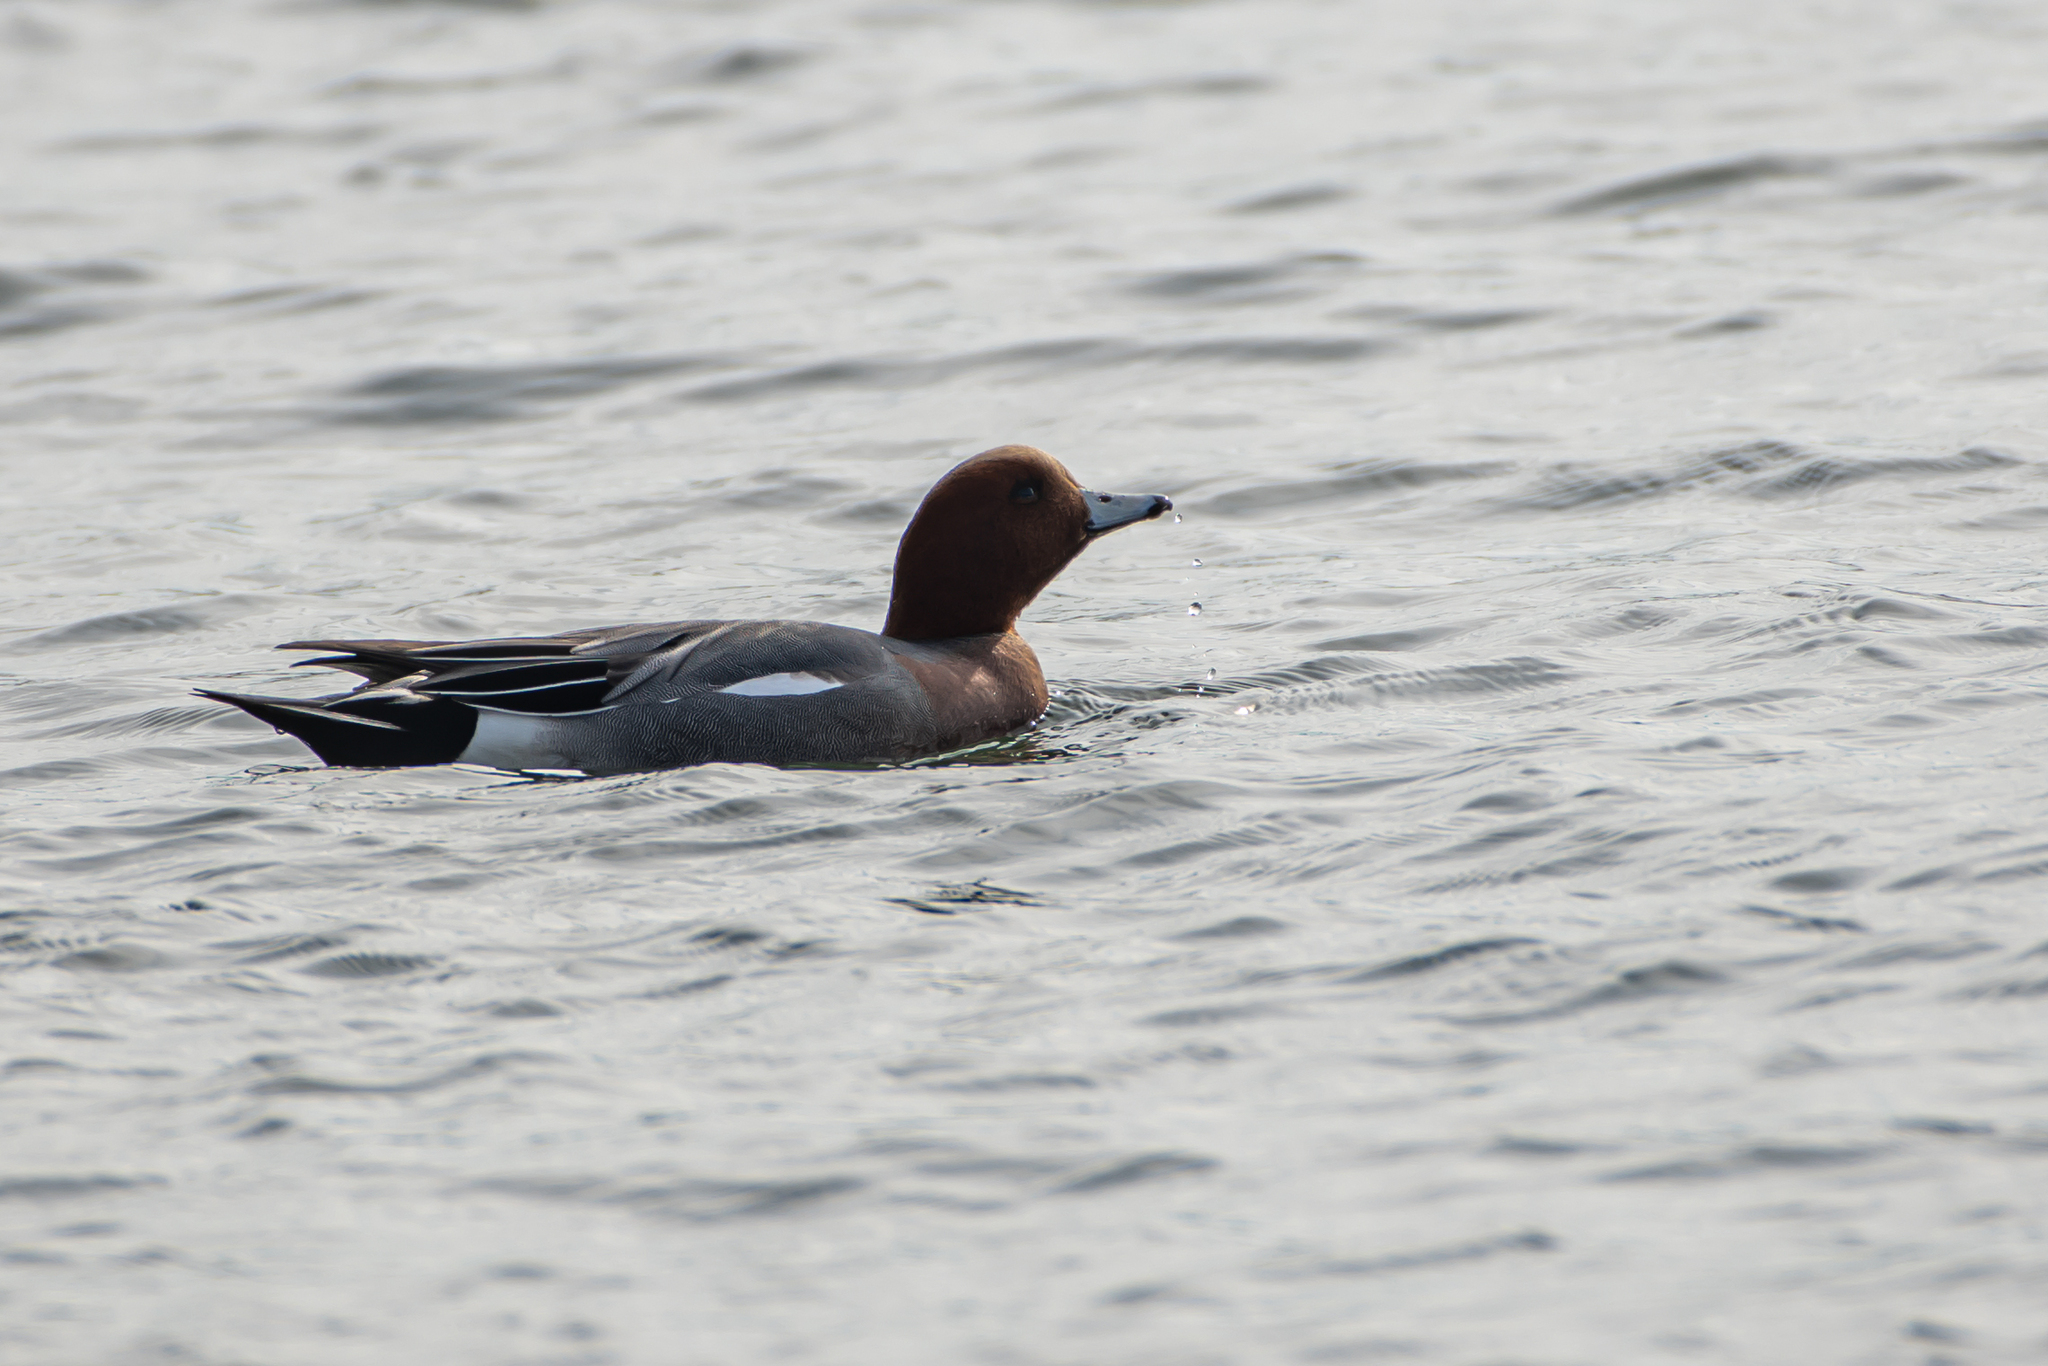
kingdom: Animalia
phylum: Chordata
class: Aves
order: Anseriformes
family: Anatidae
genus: Mareca
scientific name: Mareca penelope
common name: Eurasian wigeon
